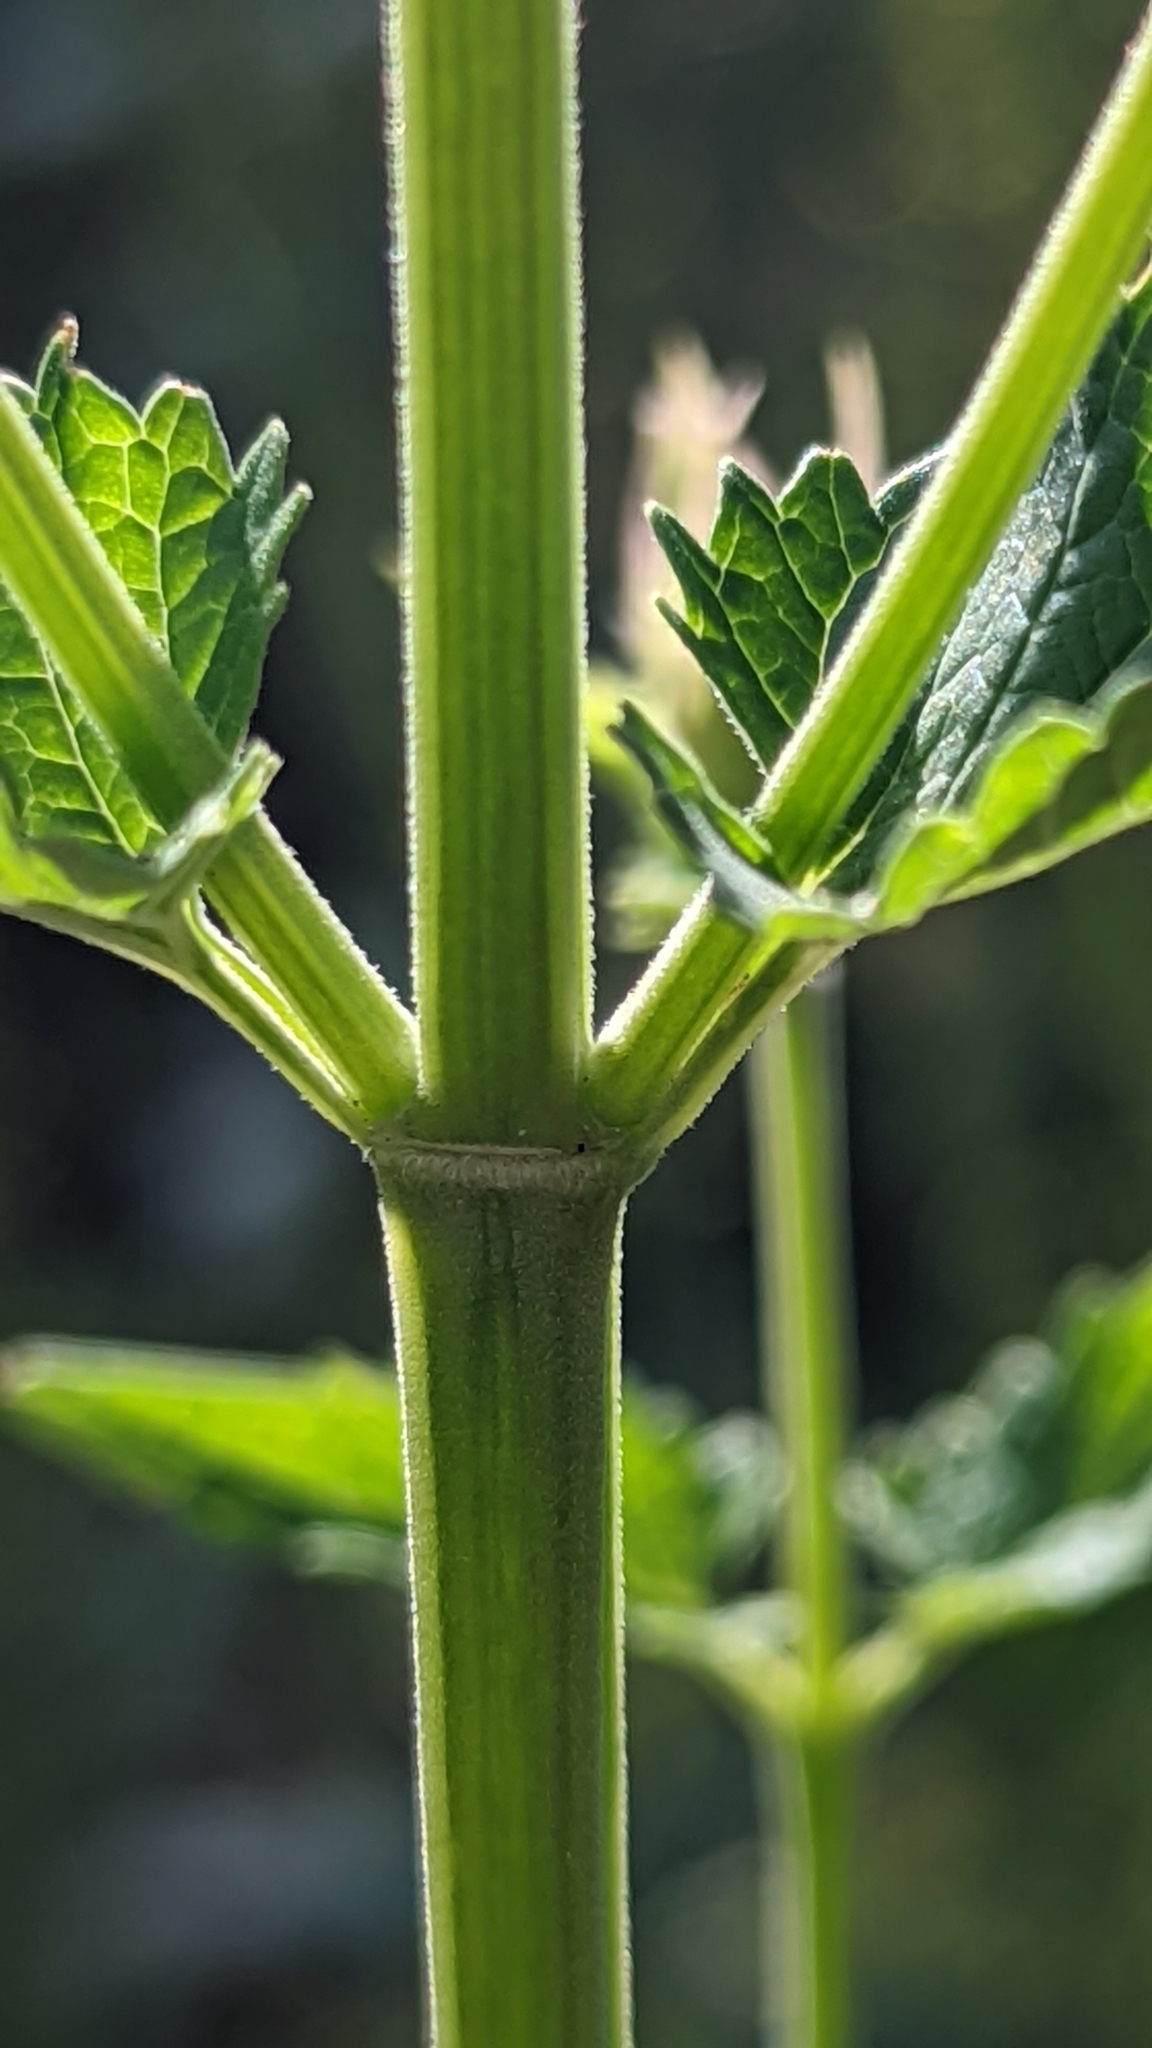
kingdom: Plantae
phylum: Tracheophyta
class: Magnoliopsida
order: Lamiales
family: Lamiaceae
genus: Agastache
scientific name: Agastache urticifolia
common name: Horsemint giant hyssop
